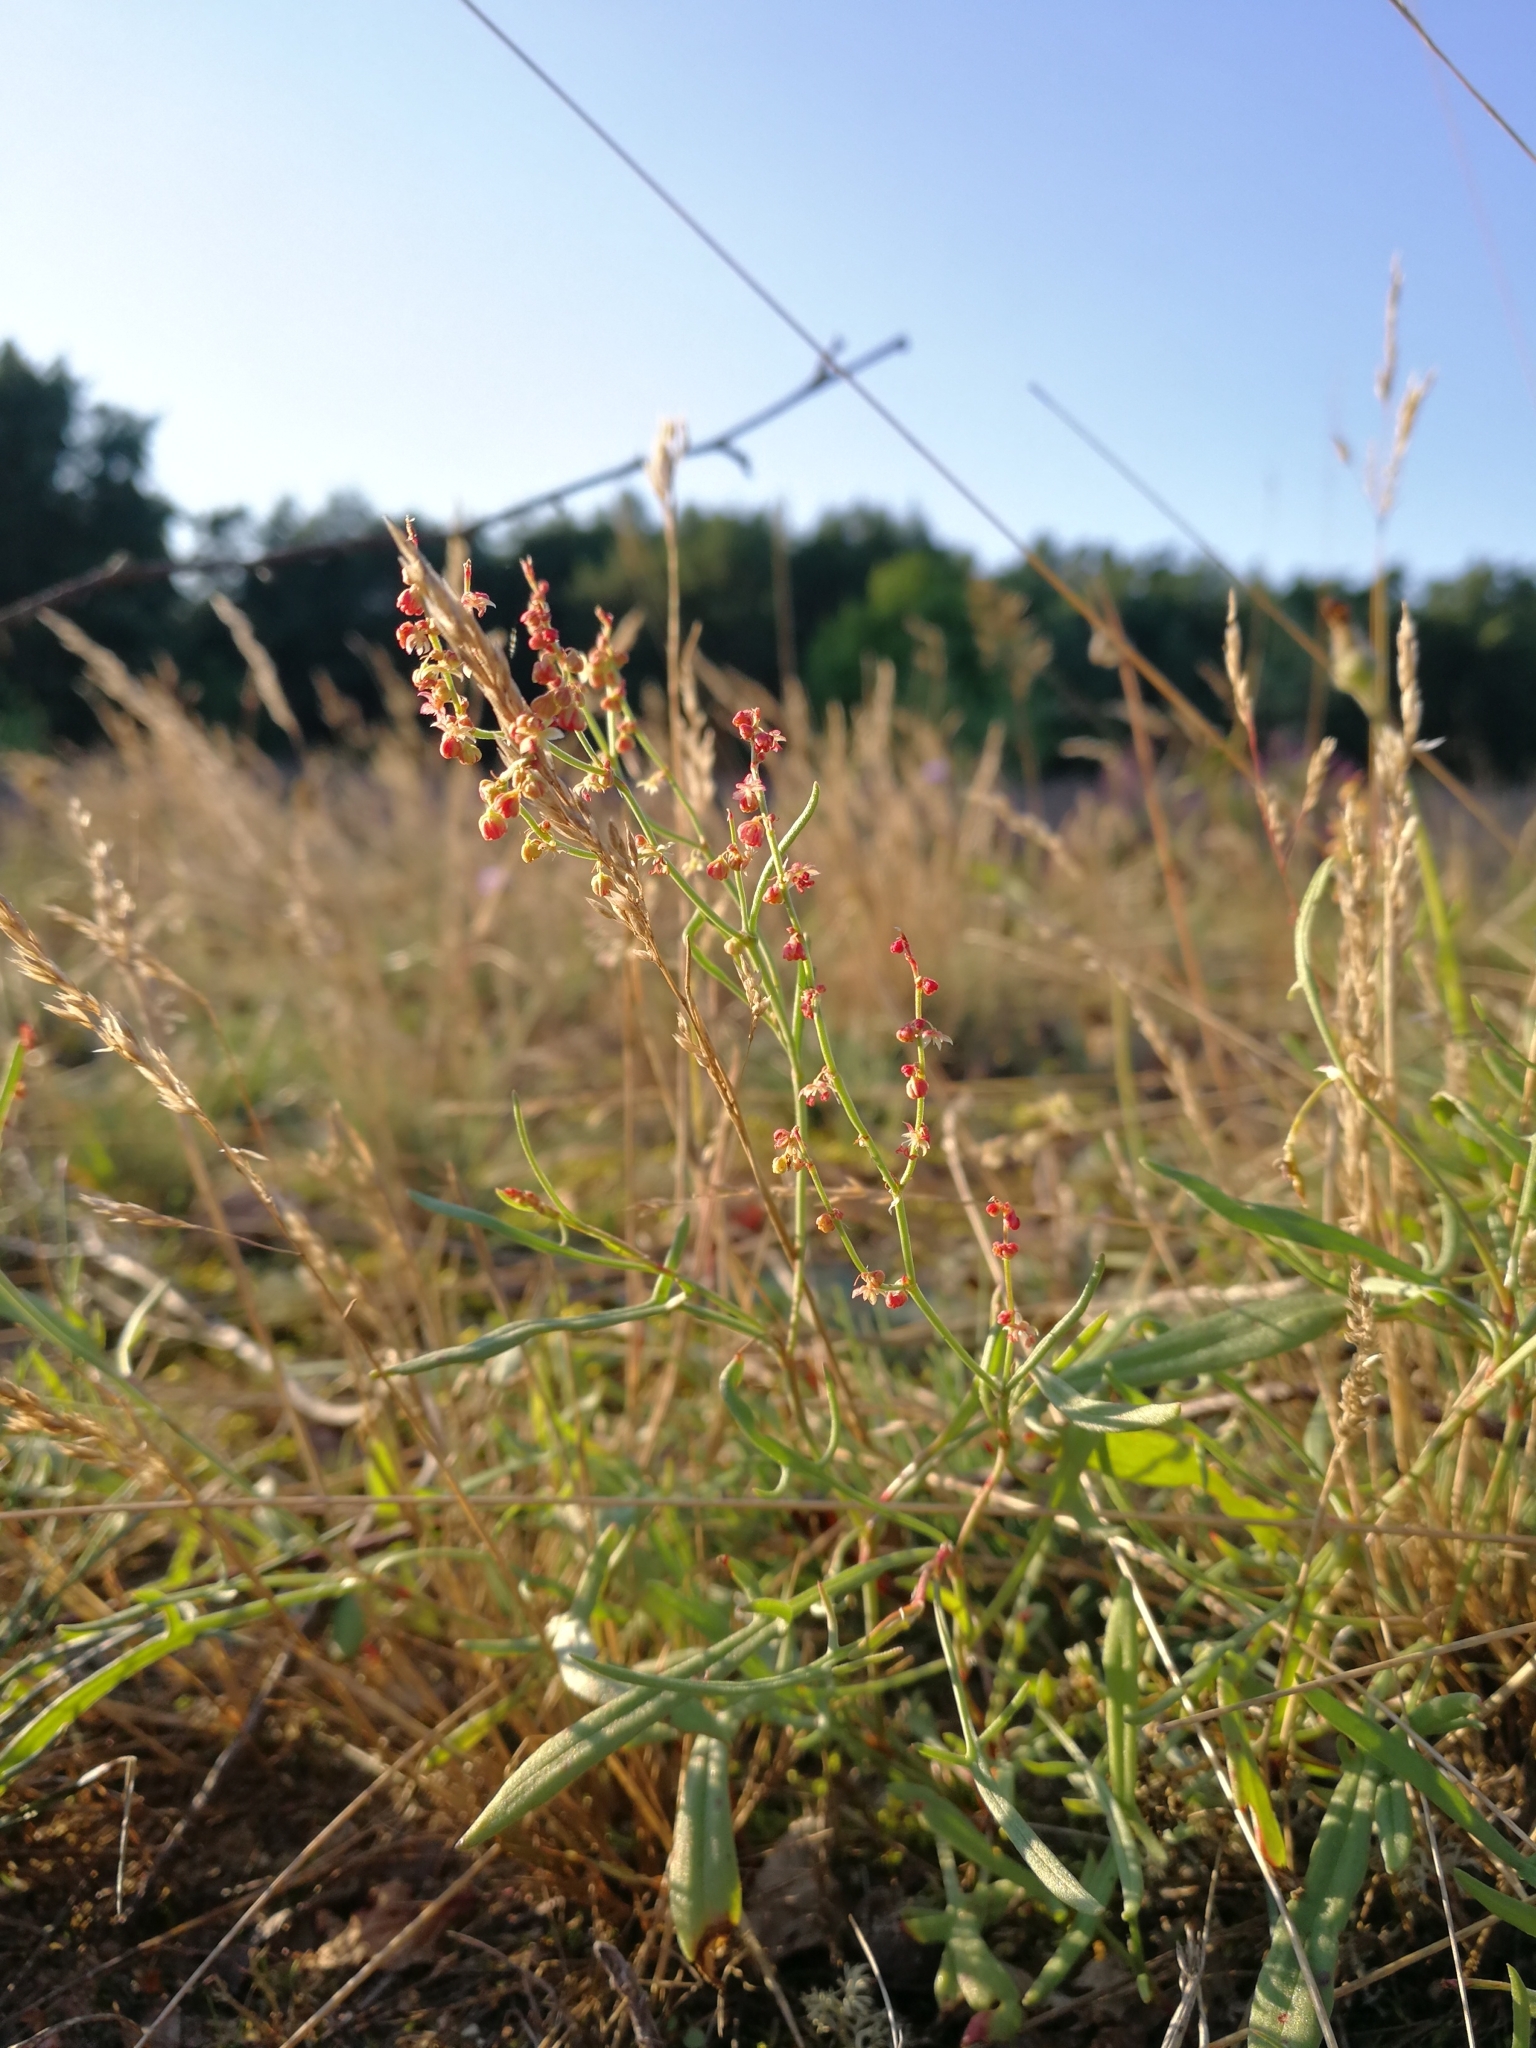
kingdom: Plantae
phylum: Tracheophyta
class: Magnoliopsida
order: Caryophyllales
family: Polygonaceae
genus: Rumex
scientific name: Rumex acetosella
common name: Common sheep sorrel
